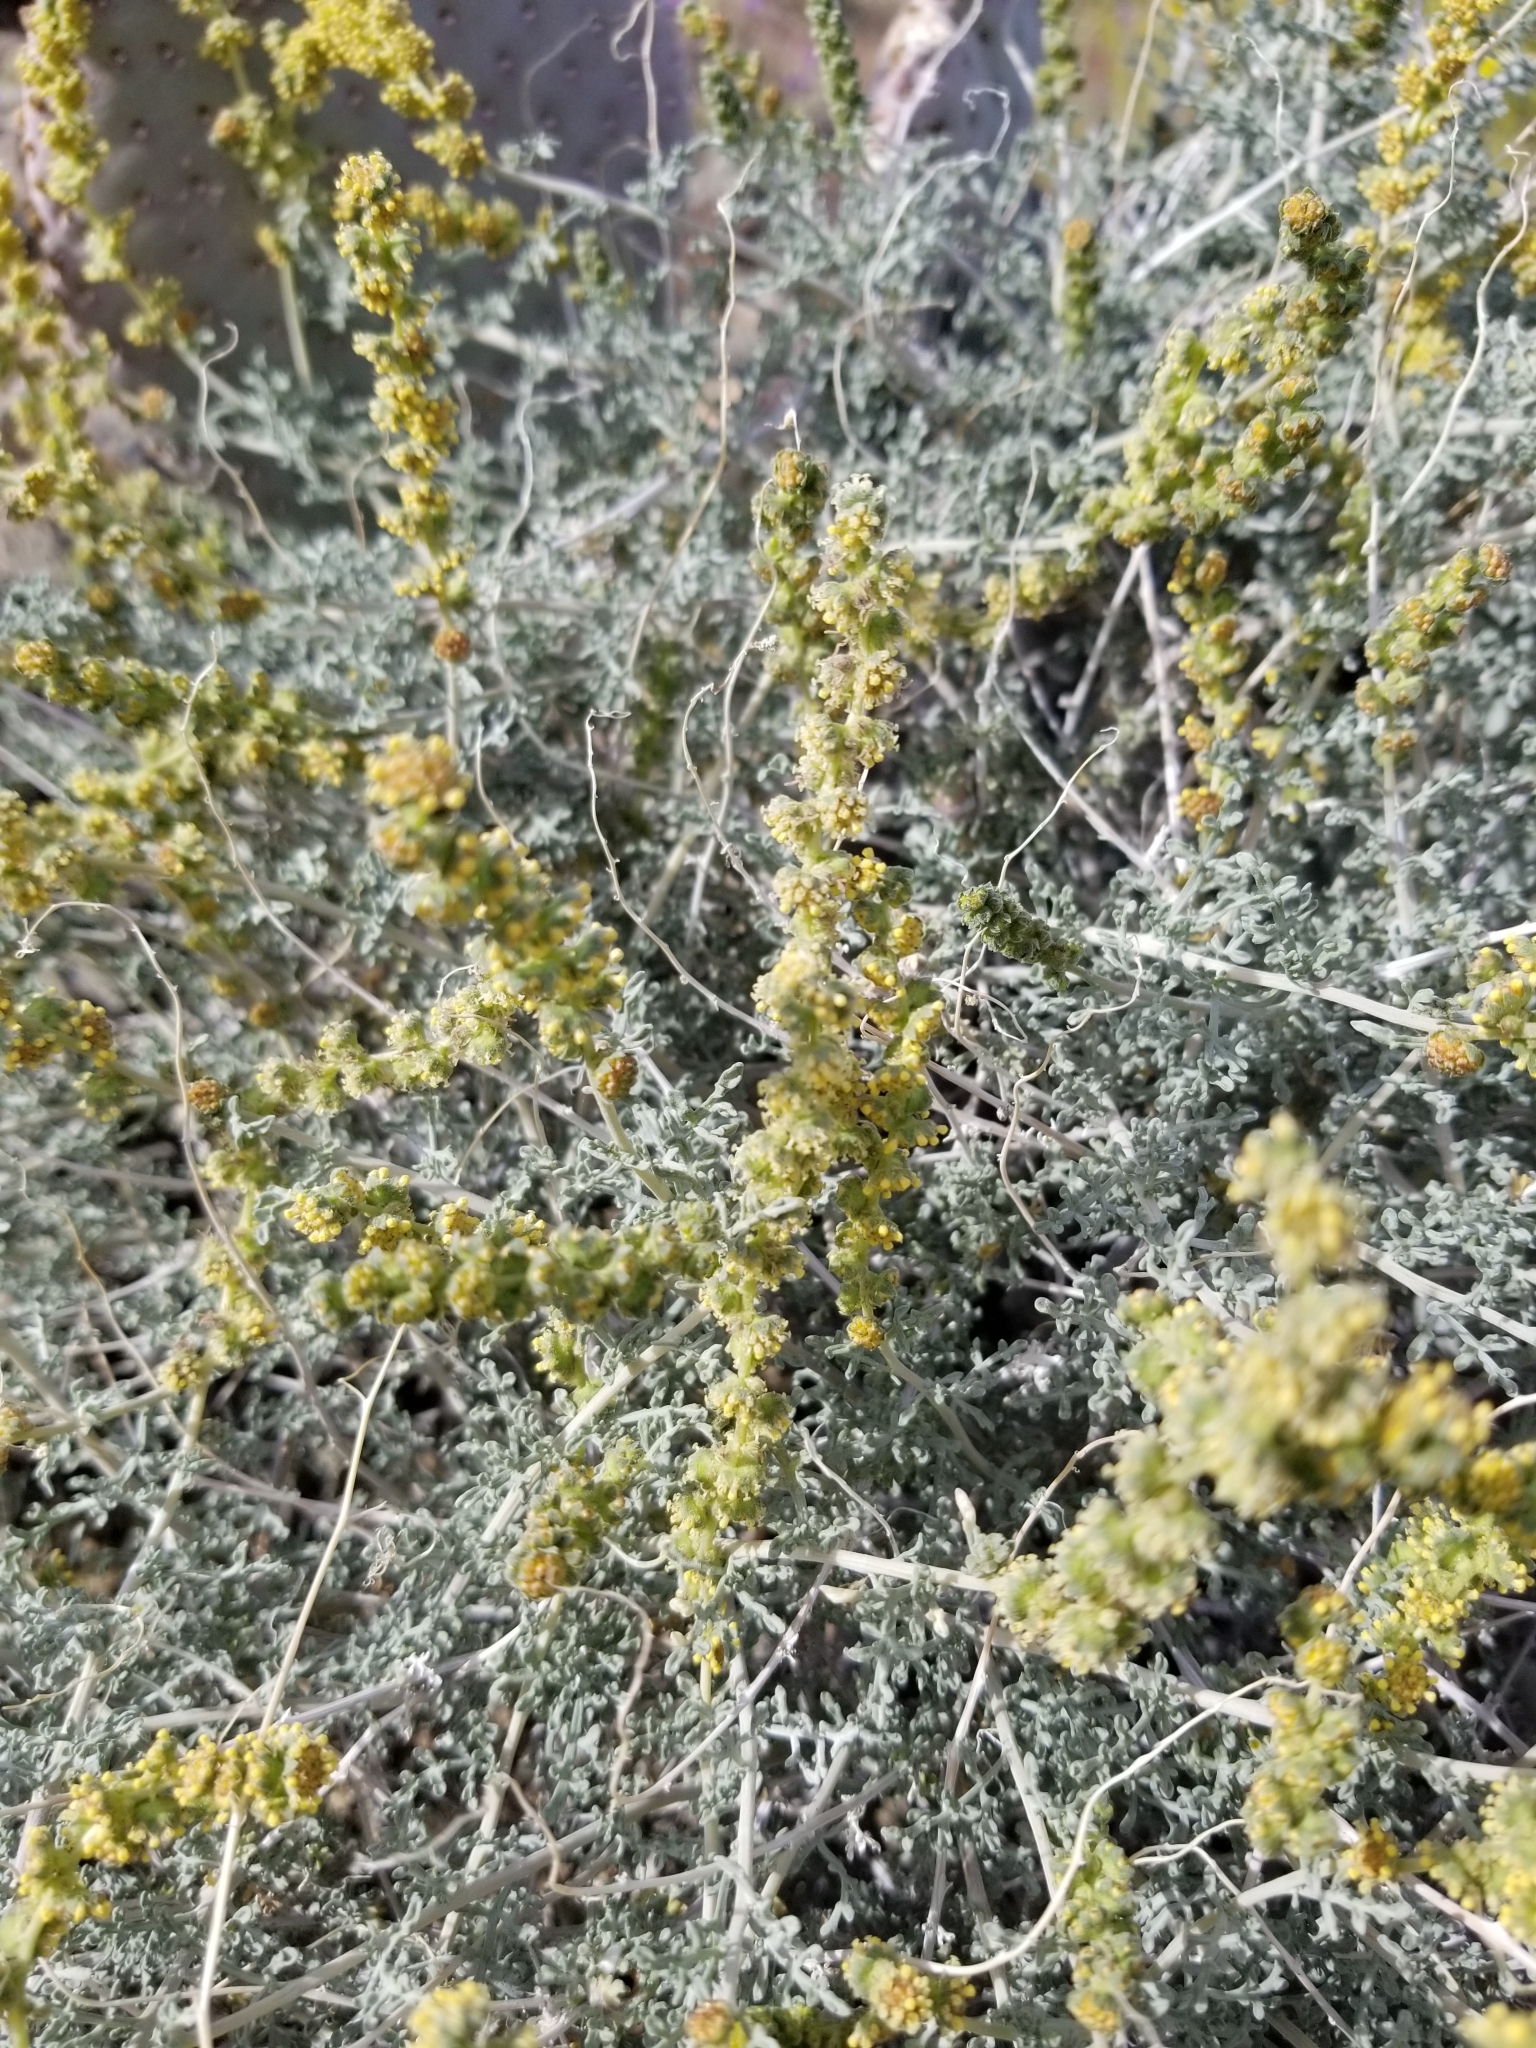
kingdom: Plantae
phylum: Tracheophyta
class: Magnoliopsida
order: Asterales
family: Asteraceae
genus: Ambrosia
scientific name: Ambrosia dumosa
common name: Bur-sage
